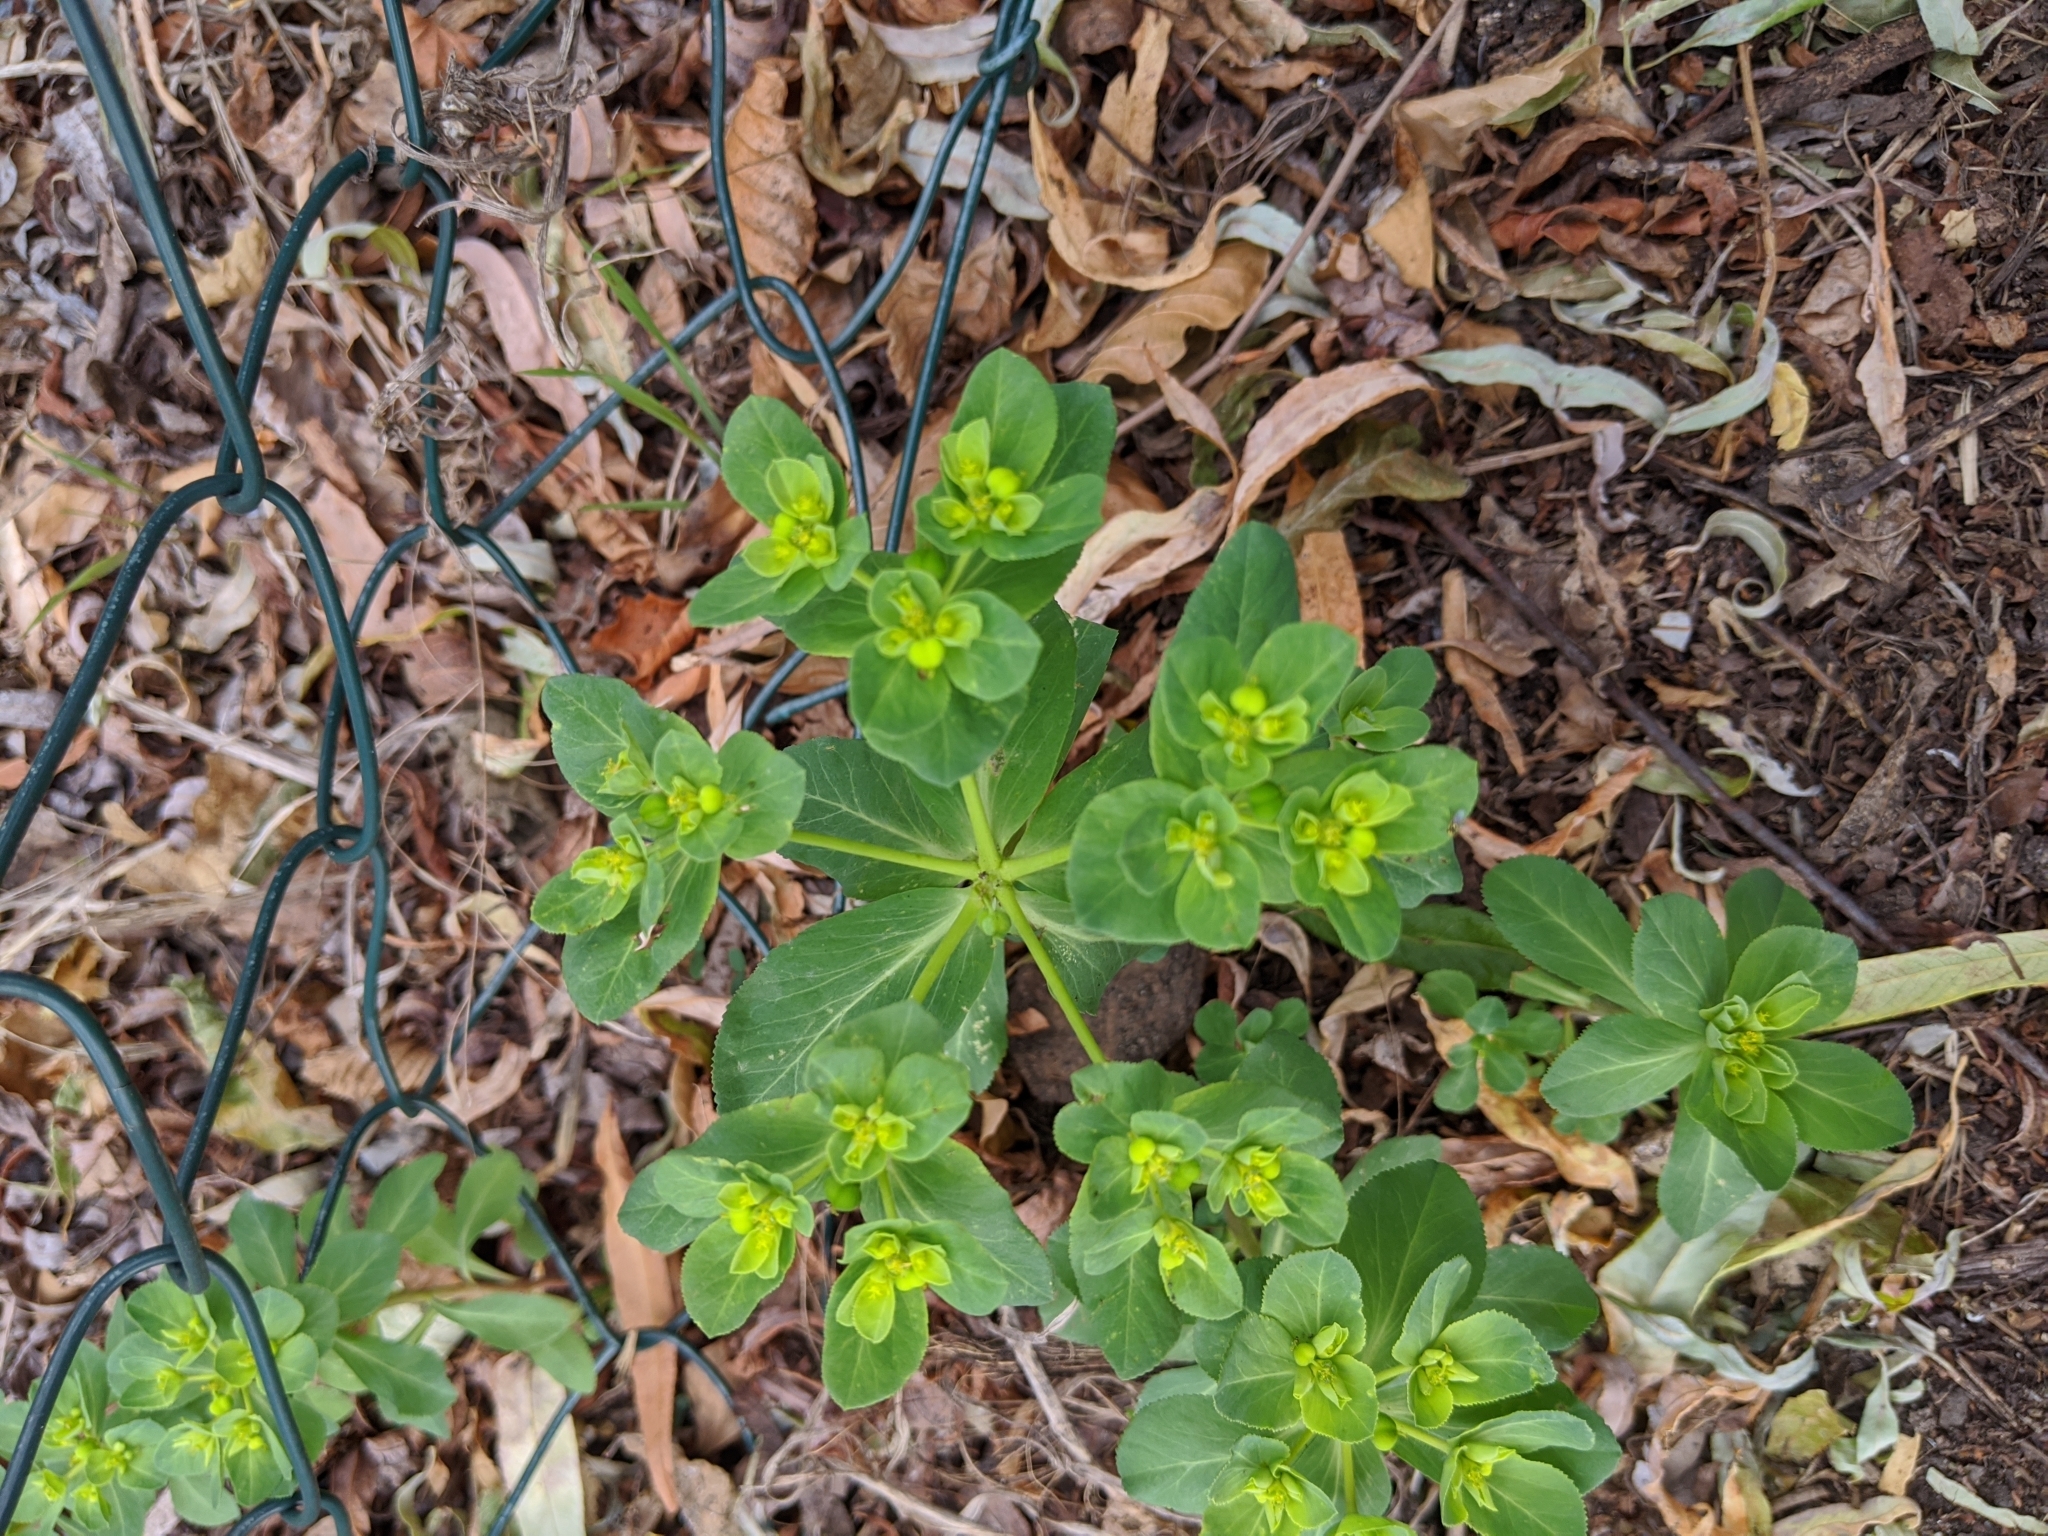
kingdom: Plantae
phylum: Tracheophyta
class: Magnoliopsida
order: Malpighiales
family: Euphorbiaceae
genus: Euphorbia
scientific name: Euphorbia helioscopia
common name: Sun spurge
